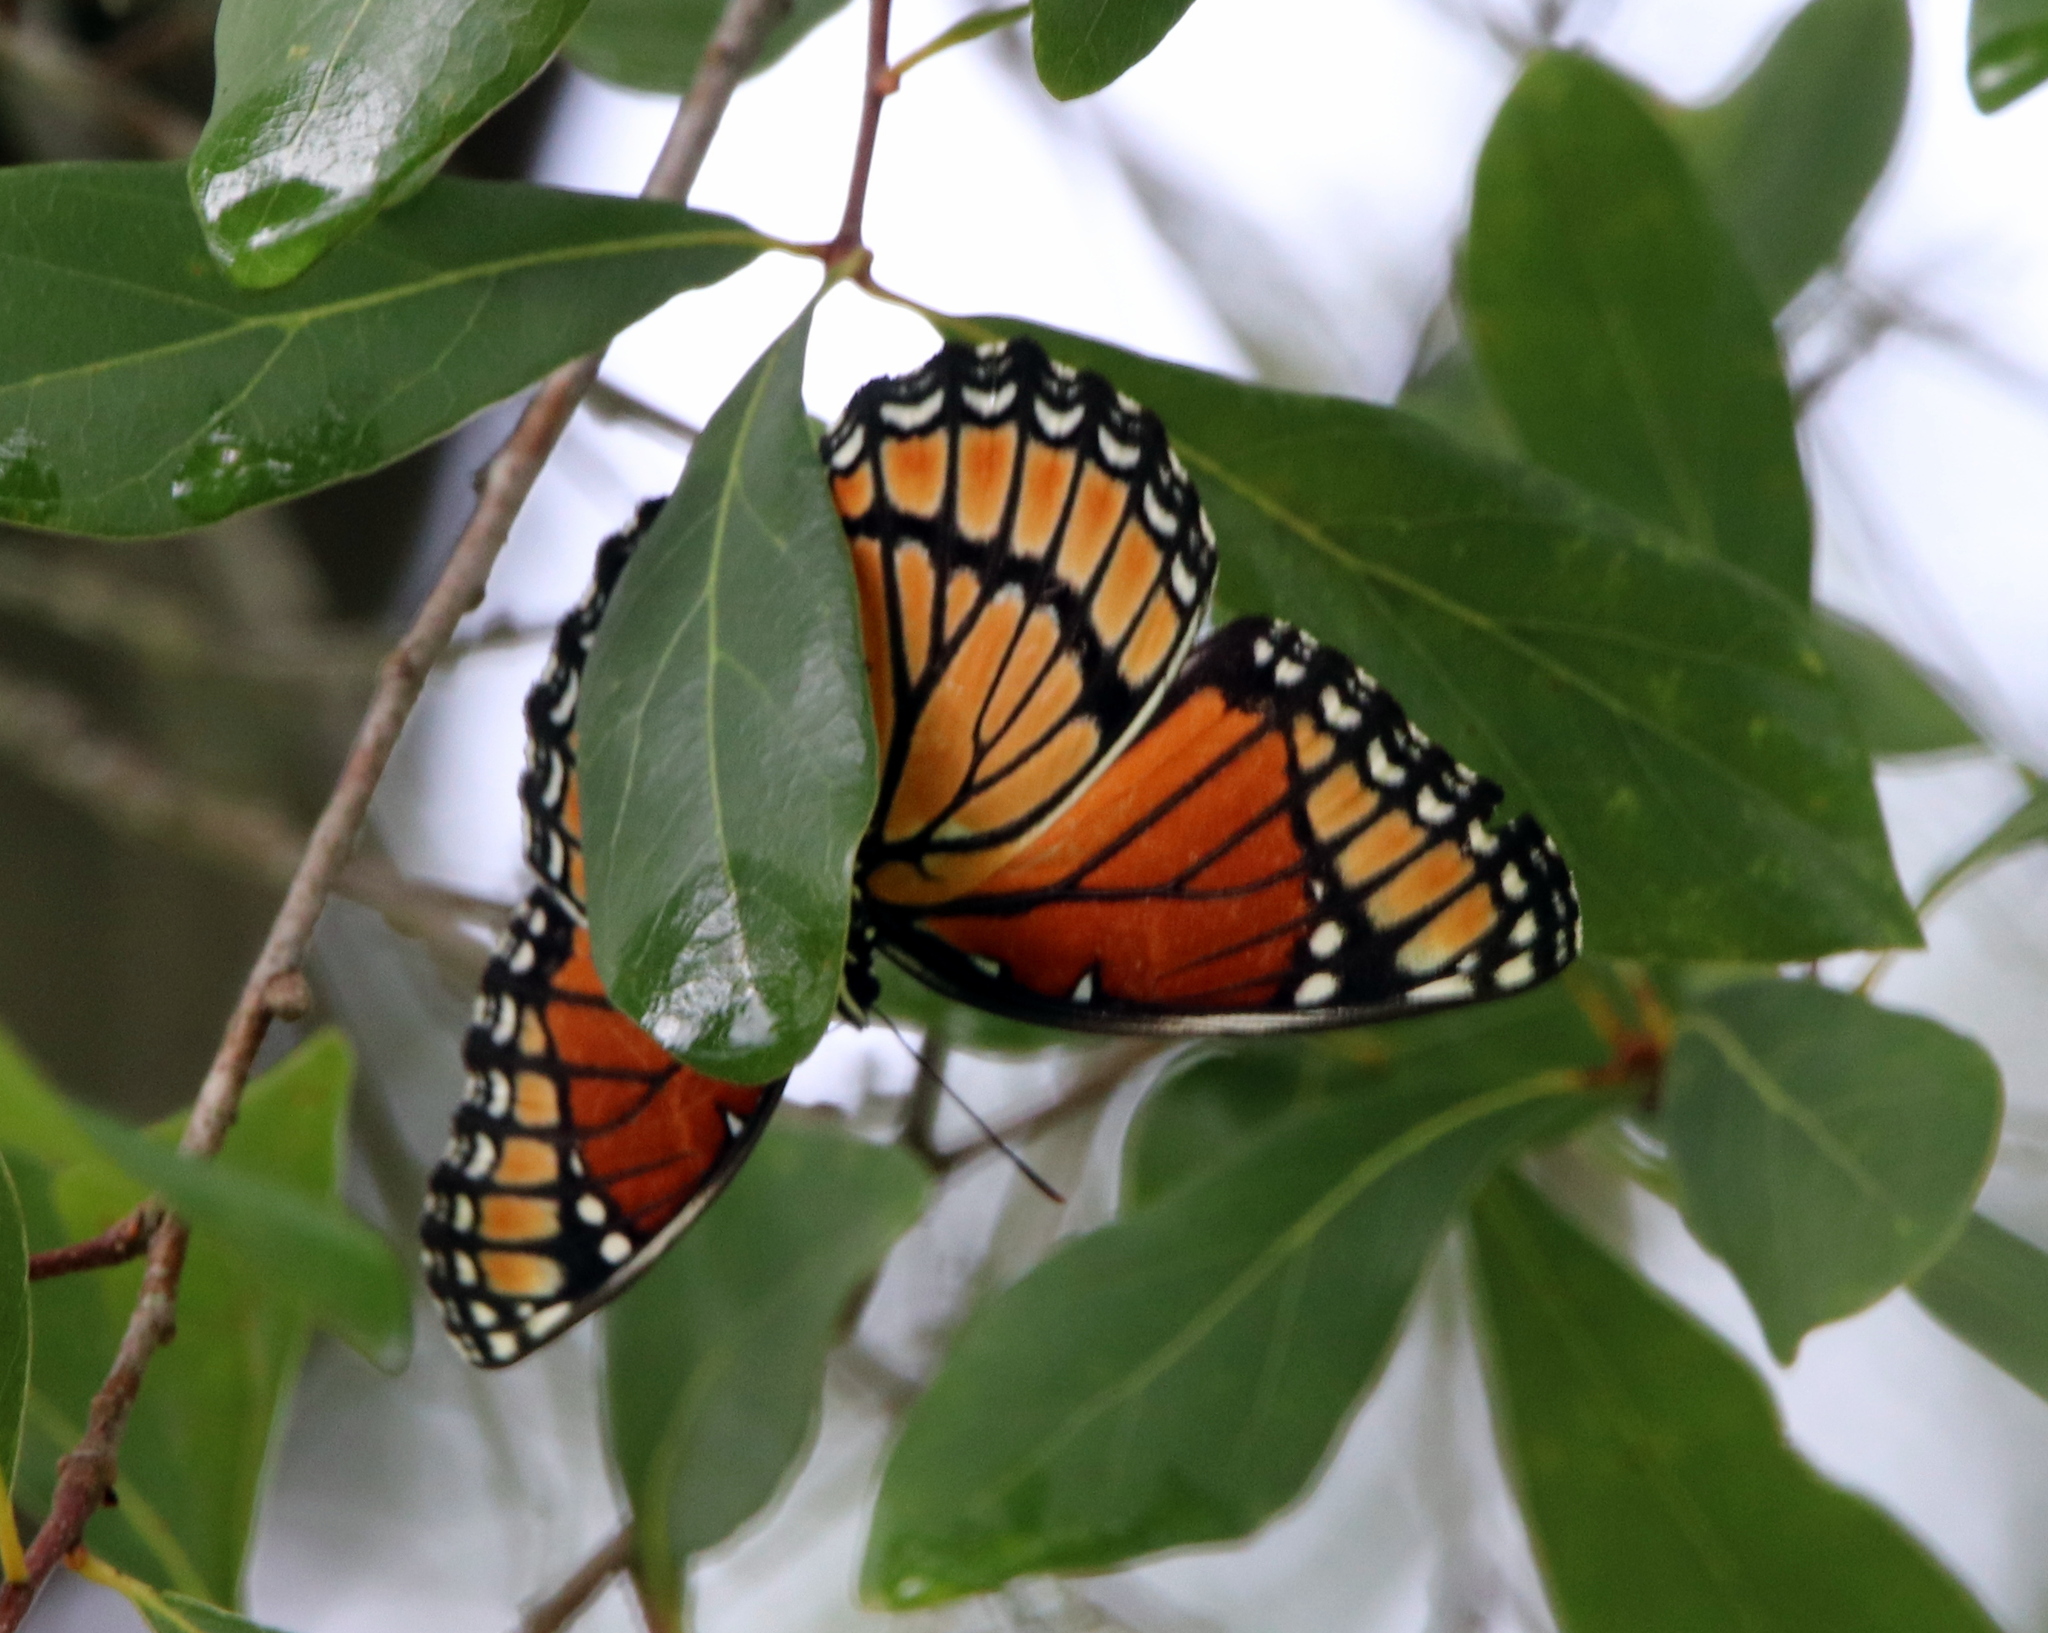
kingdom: Animalia
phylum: Arthropoda
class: Insecta
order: Lepidoptera
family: Nymphalidae
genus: Limenitis
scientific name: Limenitis archippus
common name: Viceroy
